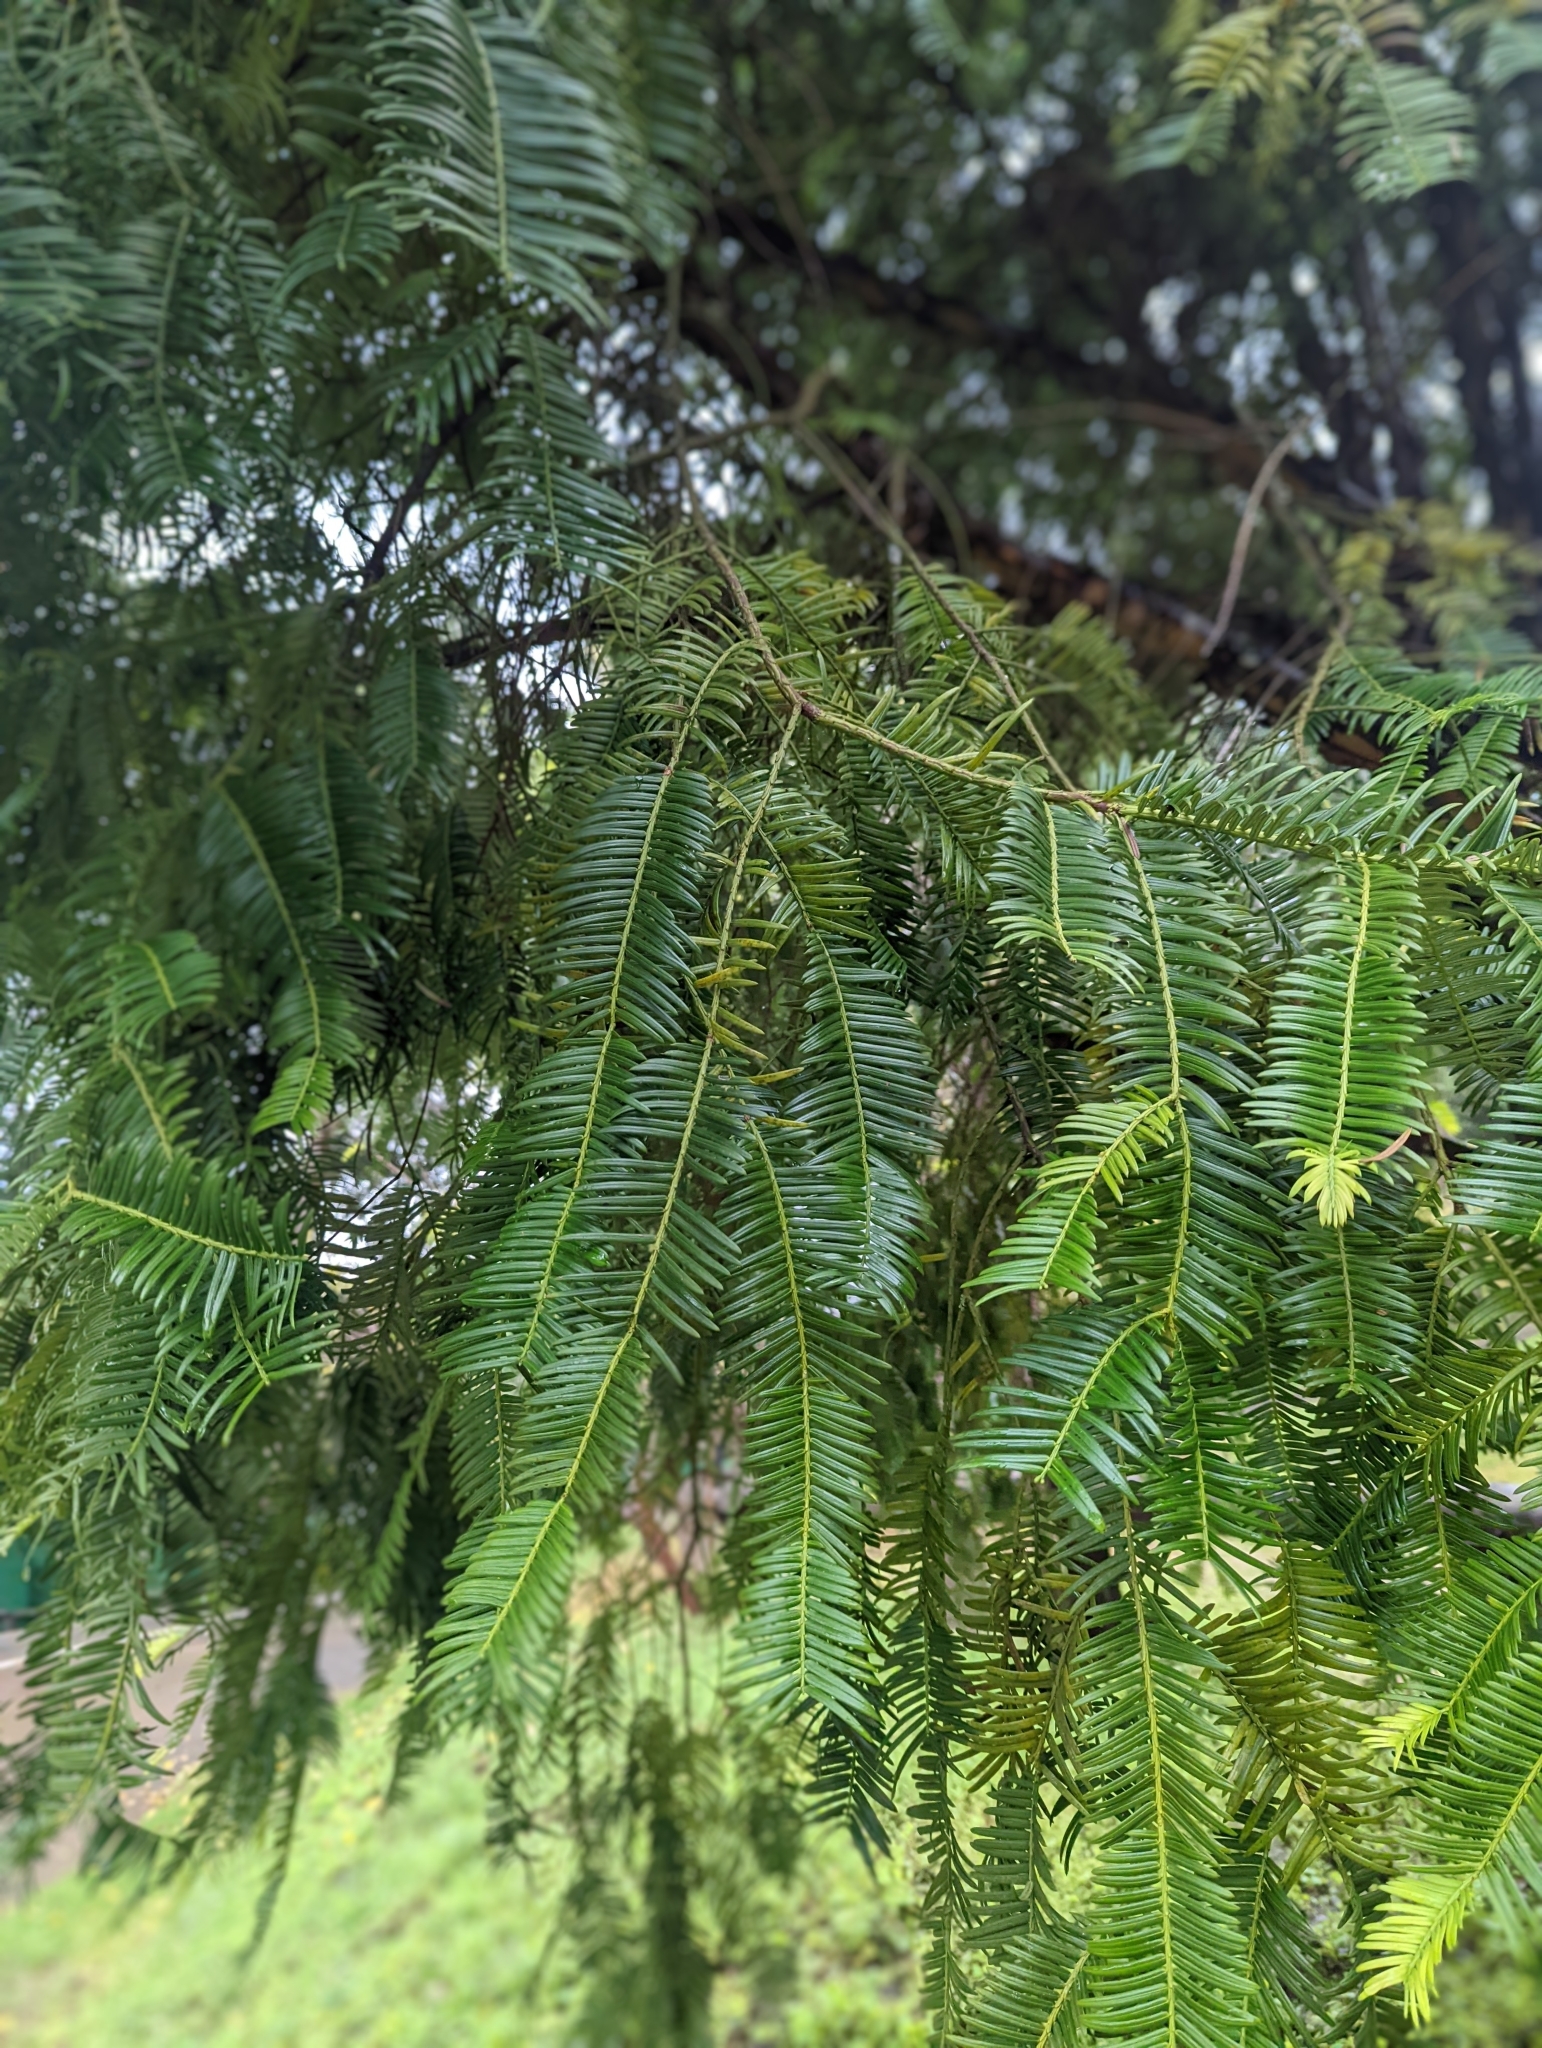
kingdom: Plantae
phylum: Tracheophyta
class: Pinopsida
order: Pinales
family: Cephalotaxaceae
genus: Cephalotaxus
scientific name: Cephalotaxus
